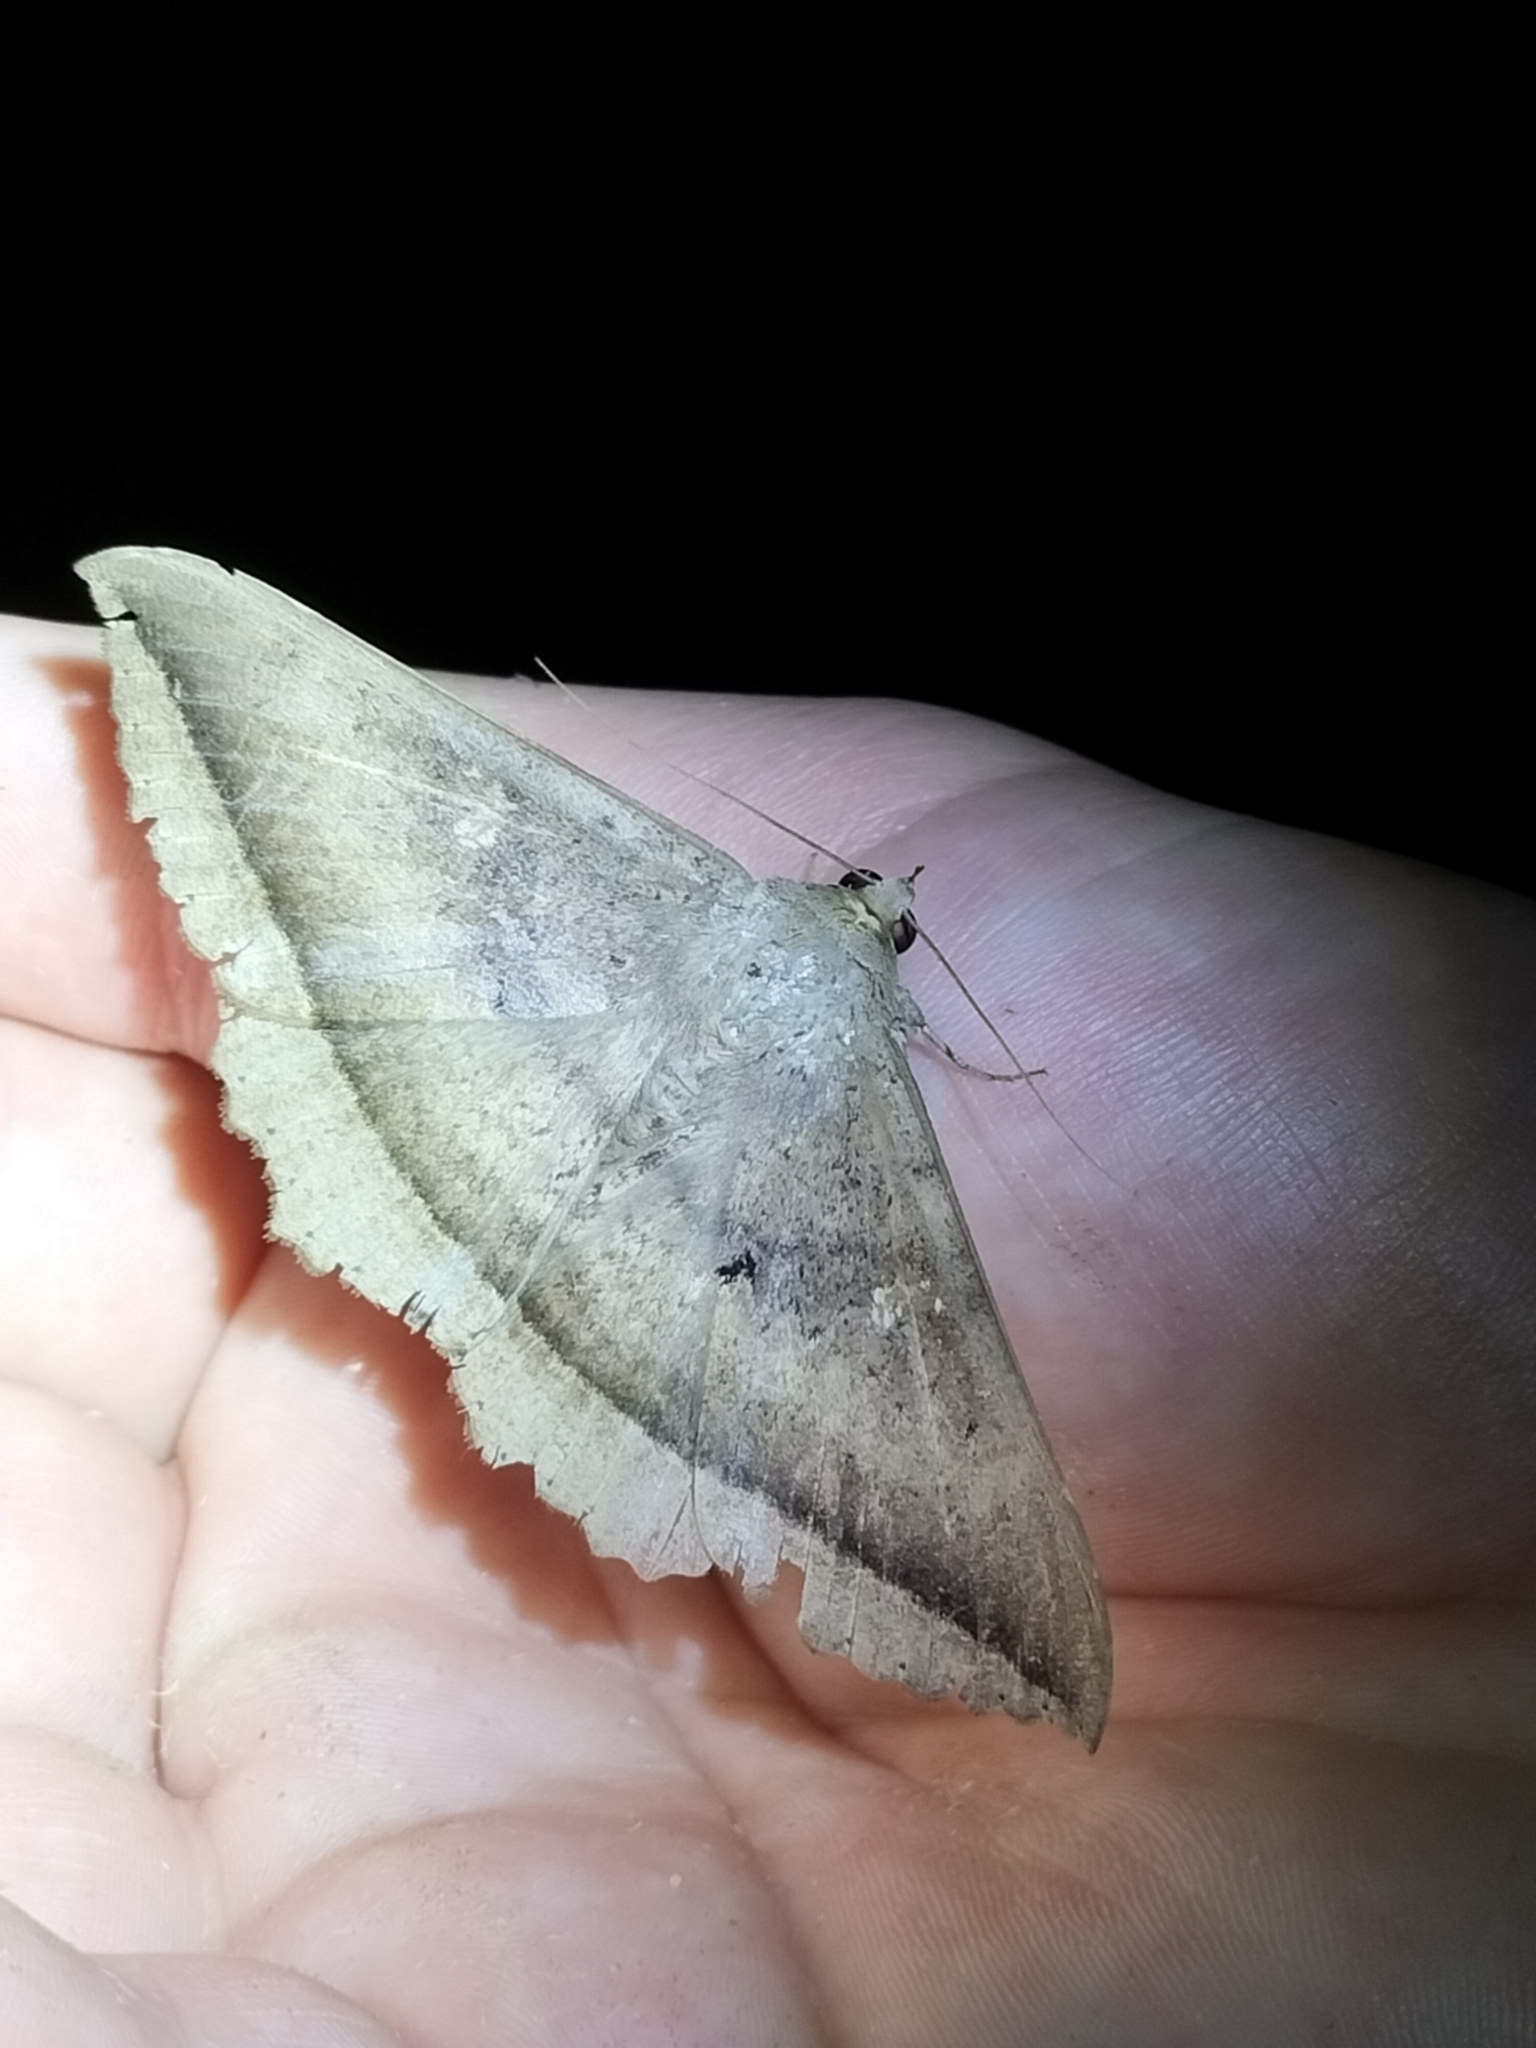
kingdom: Animalia
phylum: Arthropoda
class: Insecta
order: Lepidoptera
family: Erebidae
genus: Hulodes
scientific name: Hulodes caranea
